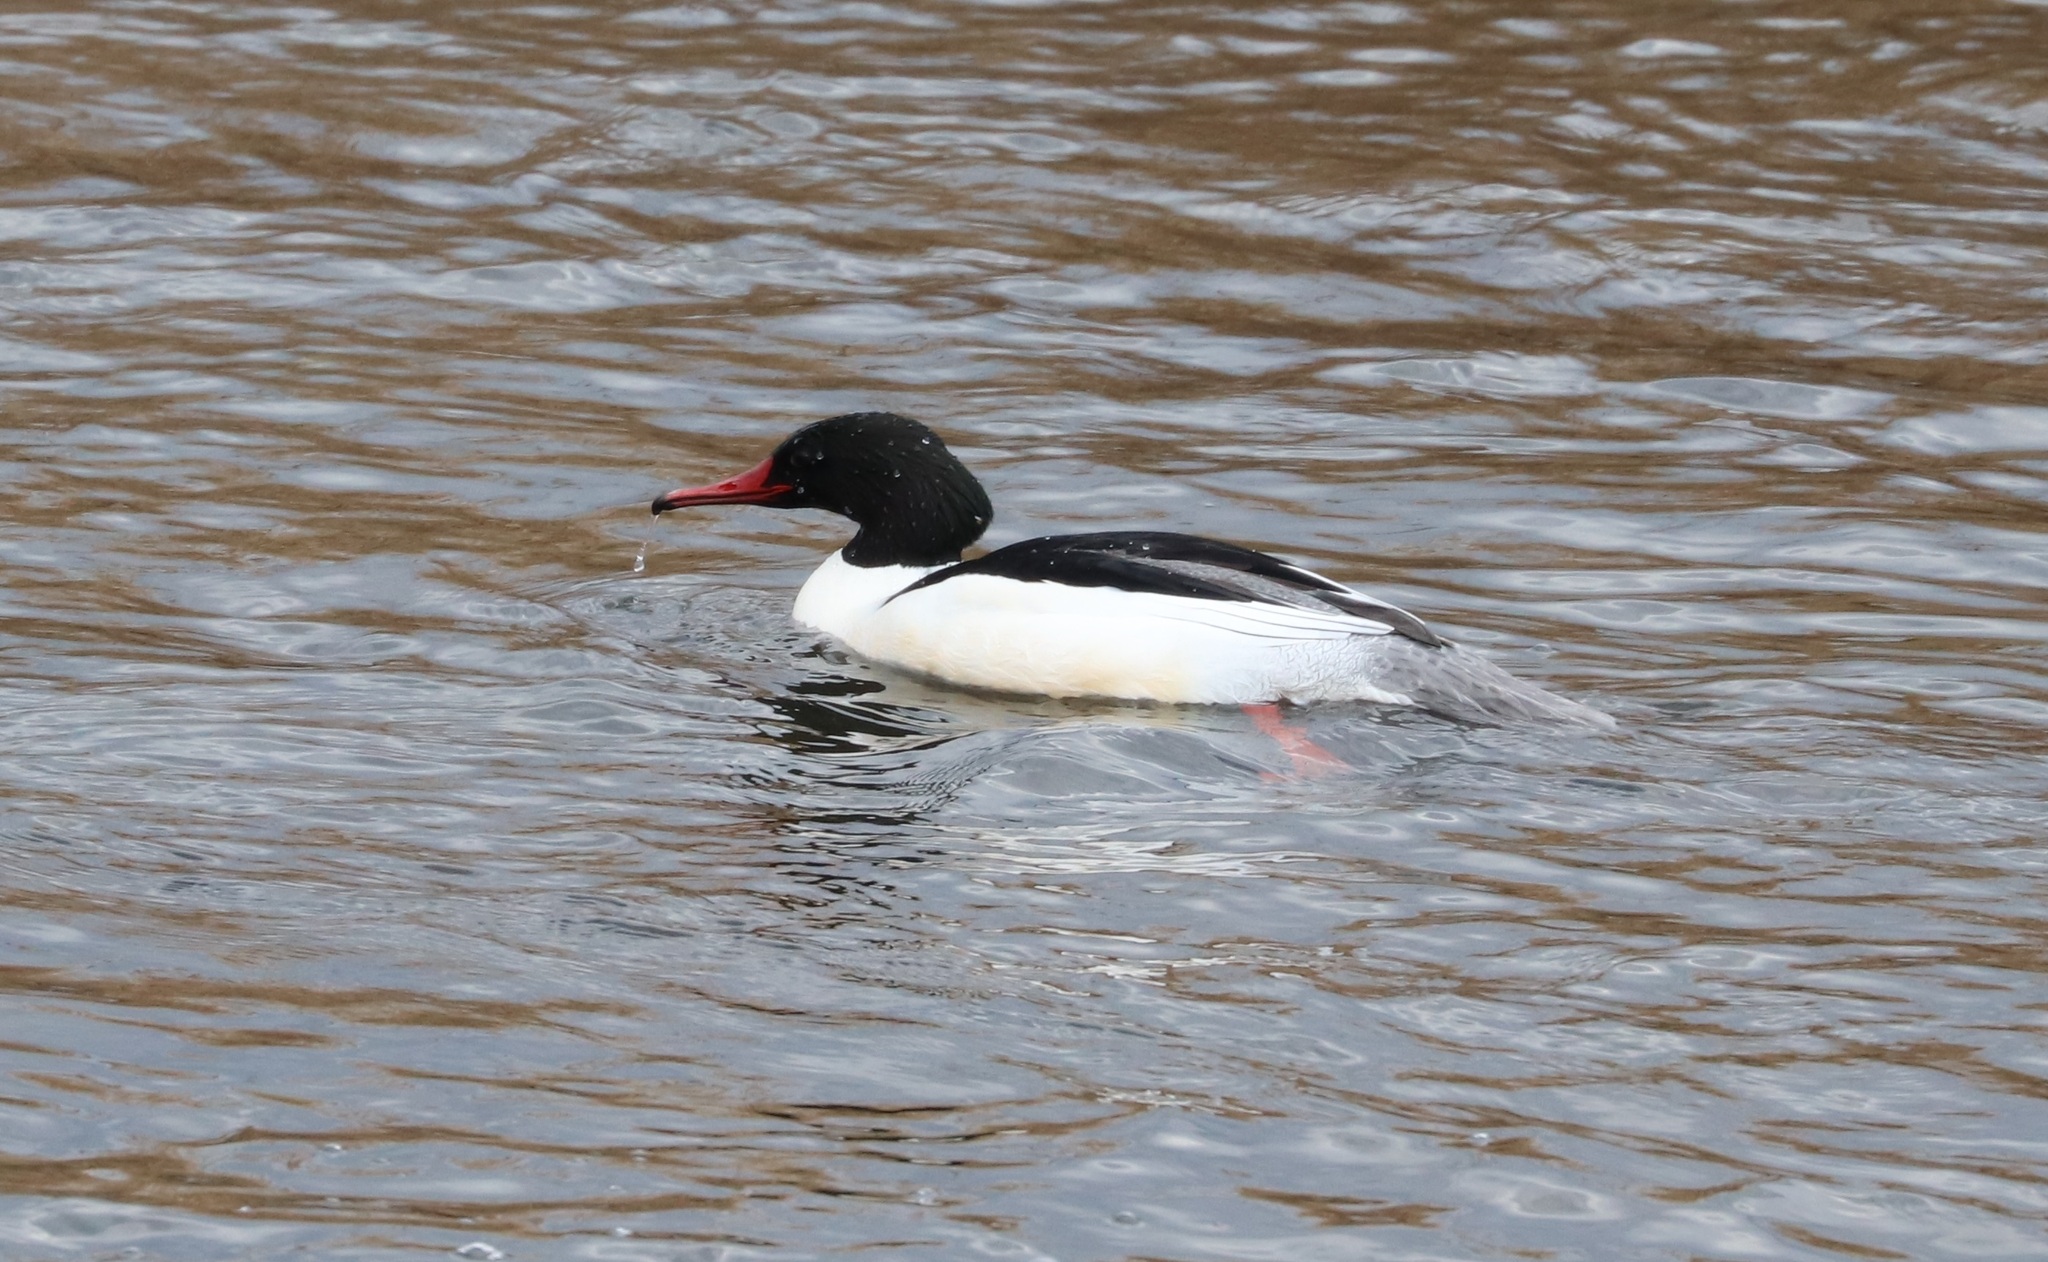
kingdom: Animalia
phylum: Chordata
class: Aves
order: Anseriformes
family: Anatidae
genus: Mergus
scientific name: Mergus merganser
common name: Common merganser
